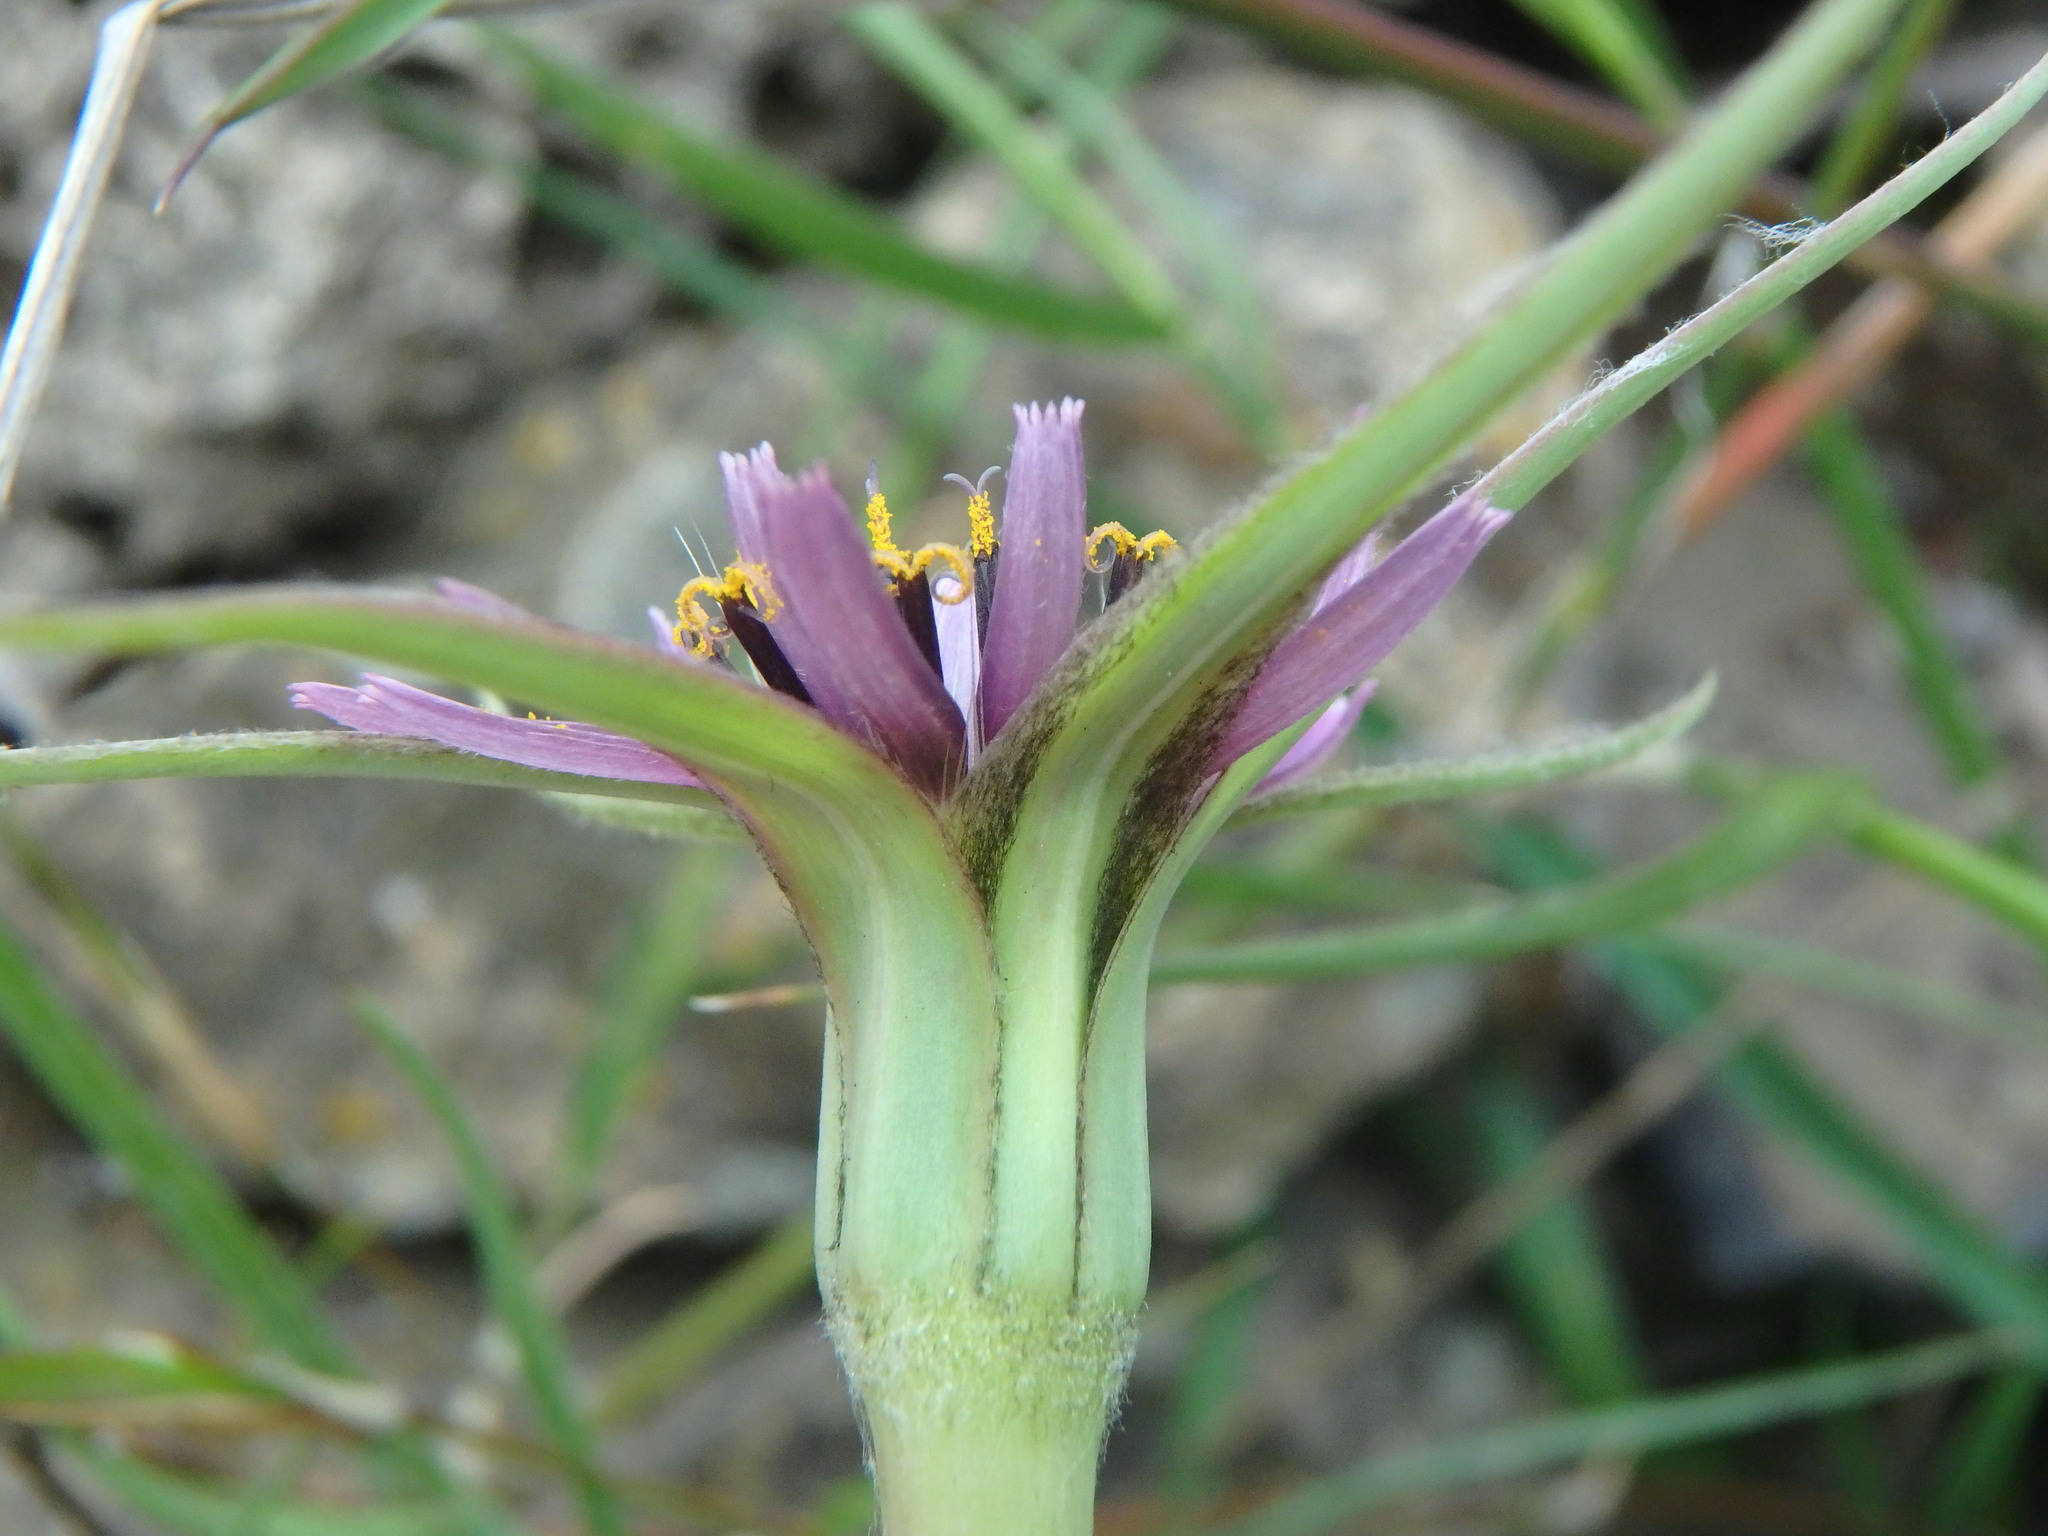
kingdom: Plantae
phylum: Tracheophyta
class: Magnoliopsida
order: Asterales
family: Asteraceae
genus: Tragopogon
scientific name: Tragopogon porrifolius
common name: Salsify
